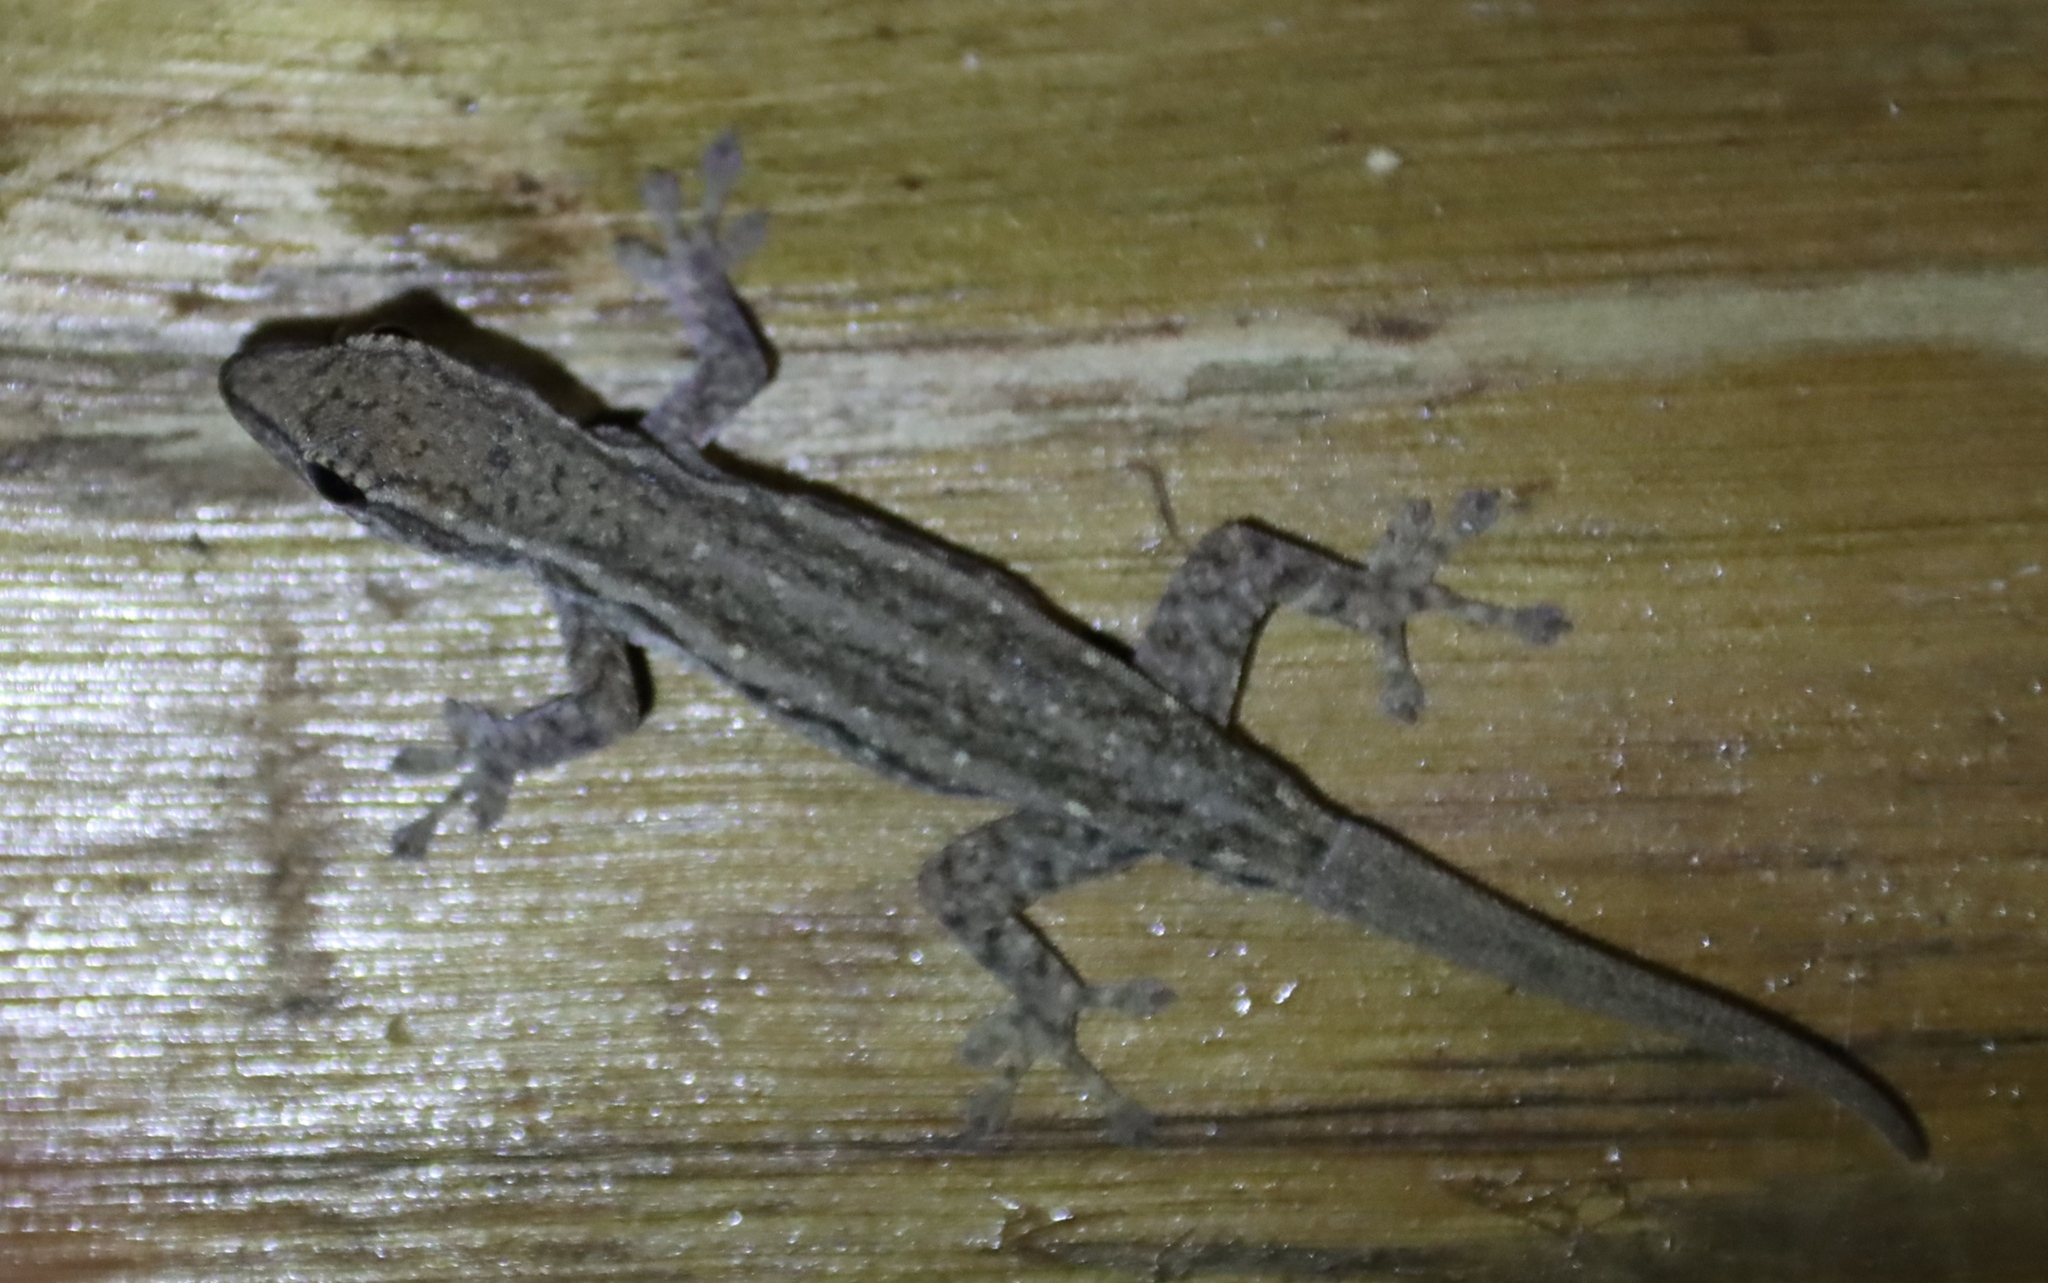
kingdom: Animalia
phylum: Chordata
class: Squamata
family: Gekkonidae
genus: Lygodactylus
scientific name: Lygodactylus capensis
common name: Cape dwarf gecko
